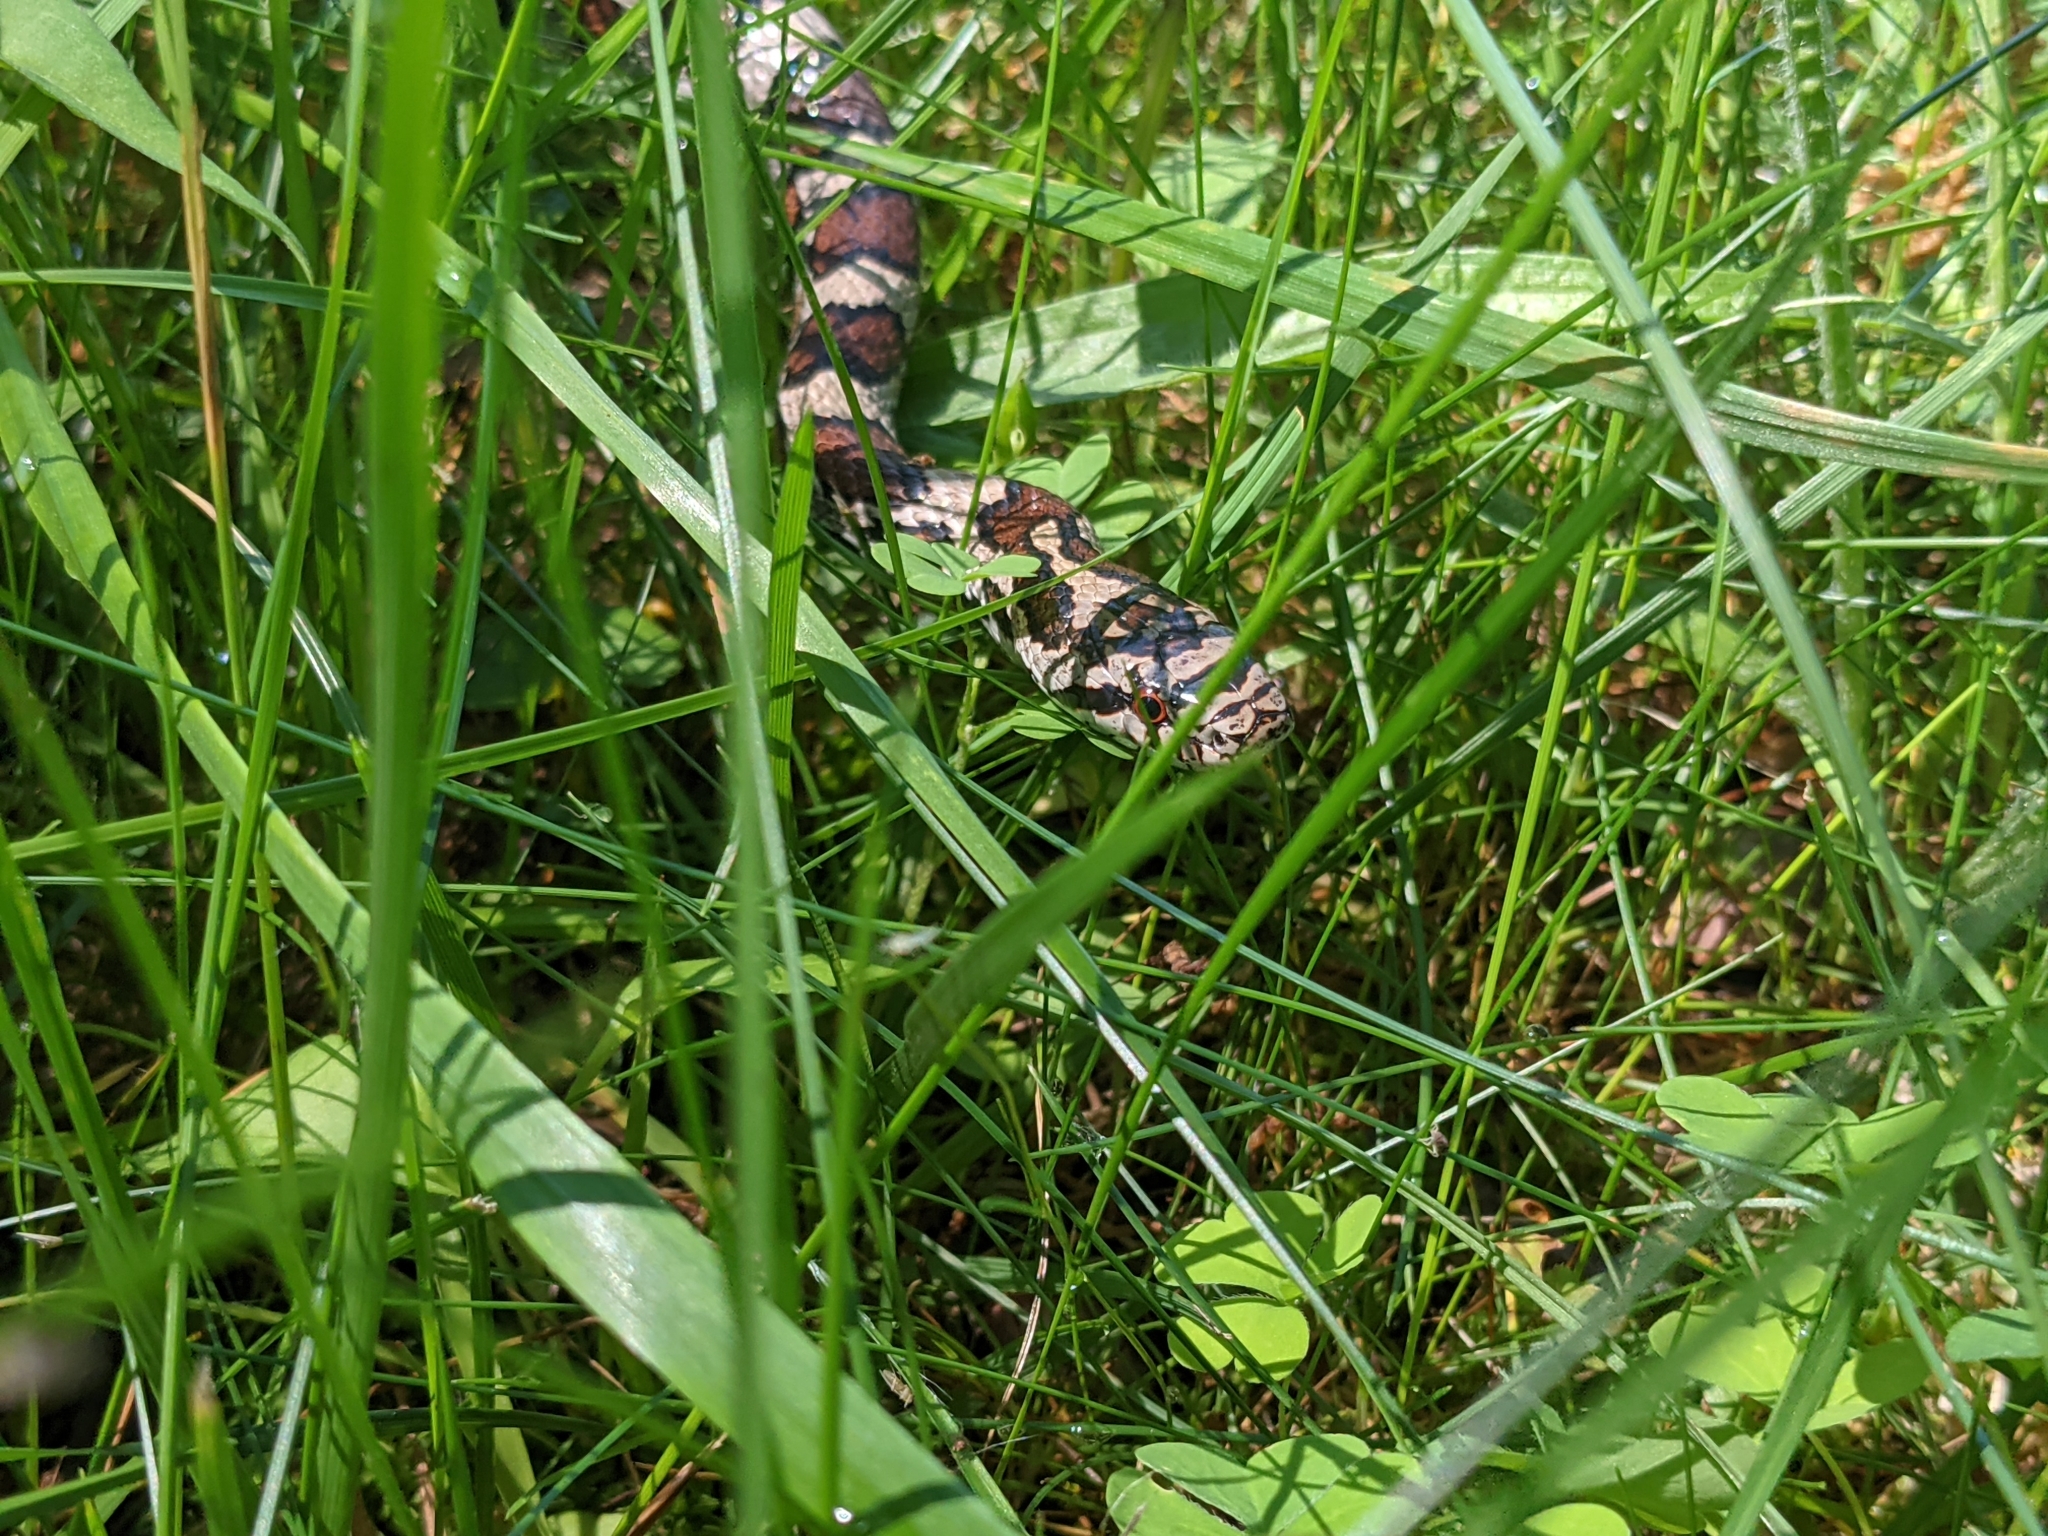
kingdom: Animalia
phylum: Chordata
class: Squamata
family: Colubridae
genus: Lampropeltis
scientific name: Lampropeltis triangulum
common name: Eastern milksnake
